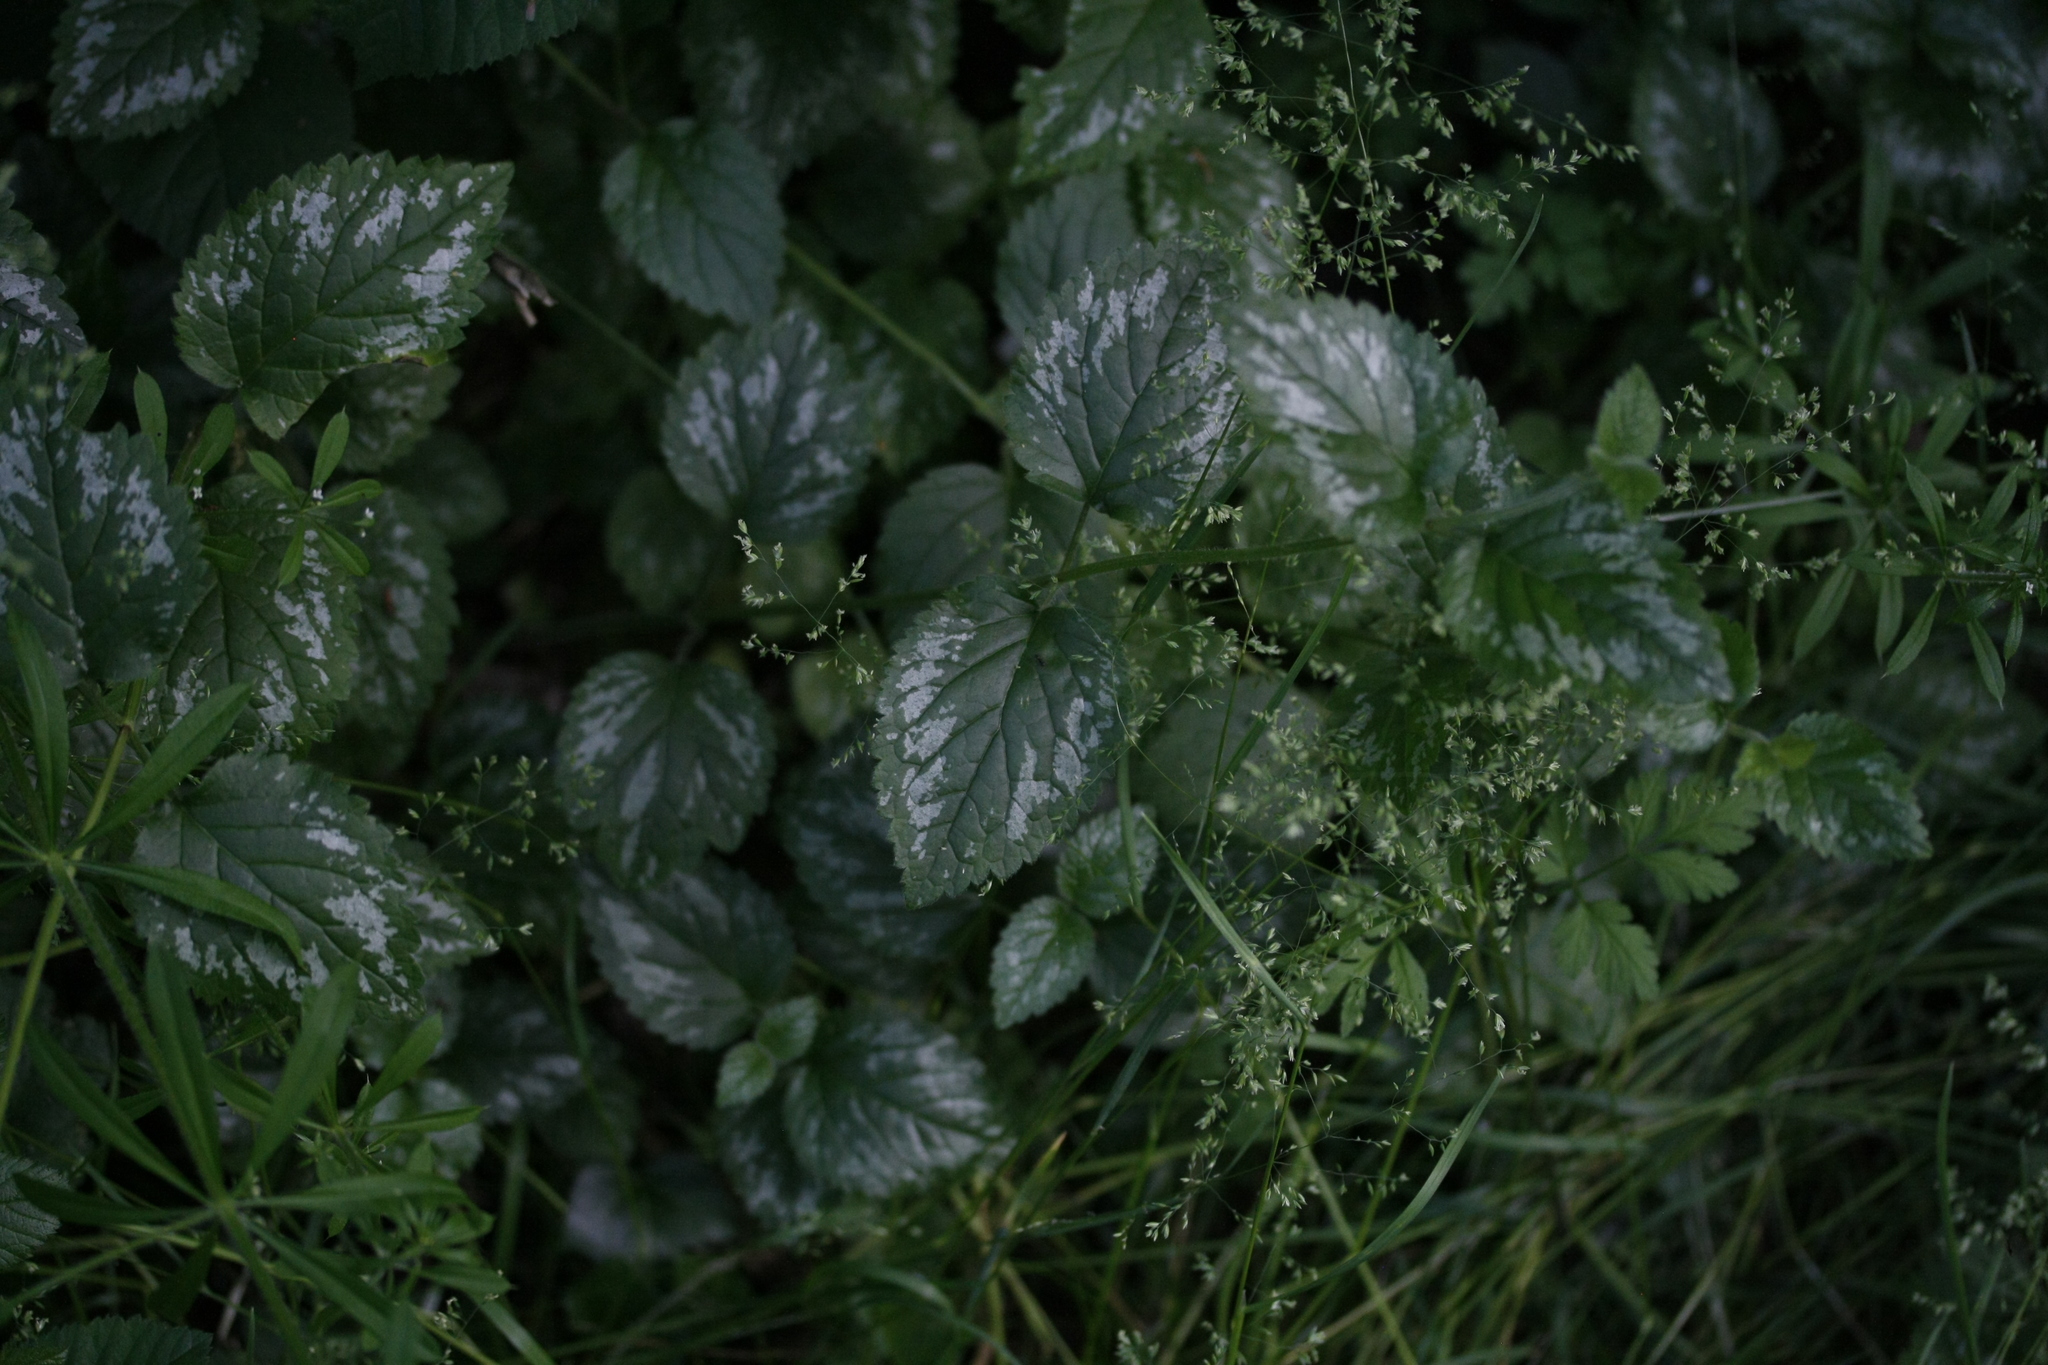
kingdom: Plantae
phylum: Tracheophyta
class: Magnoliopsida
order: Lamiales
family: Lamiaceae
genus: Lamium
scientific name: Lamium galeobdolon
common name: Yellow archangel
